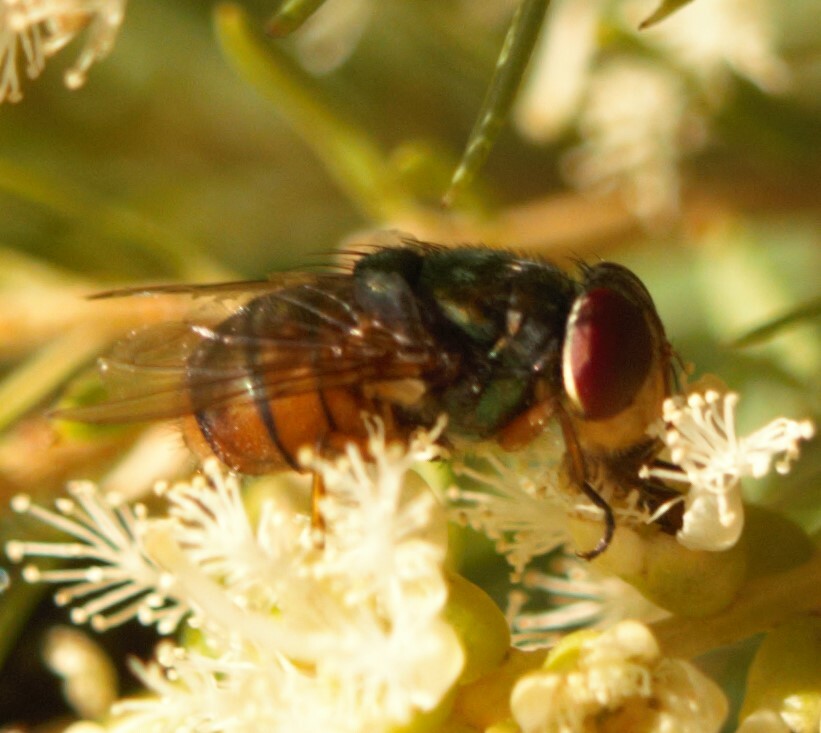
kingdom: Animalia
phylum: Arthropoda
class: Insecta
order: Diptera
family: Calliphoridae
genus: Chrysomya
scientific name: Chrysomya incisuralis
